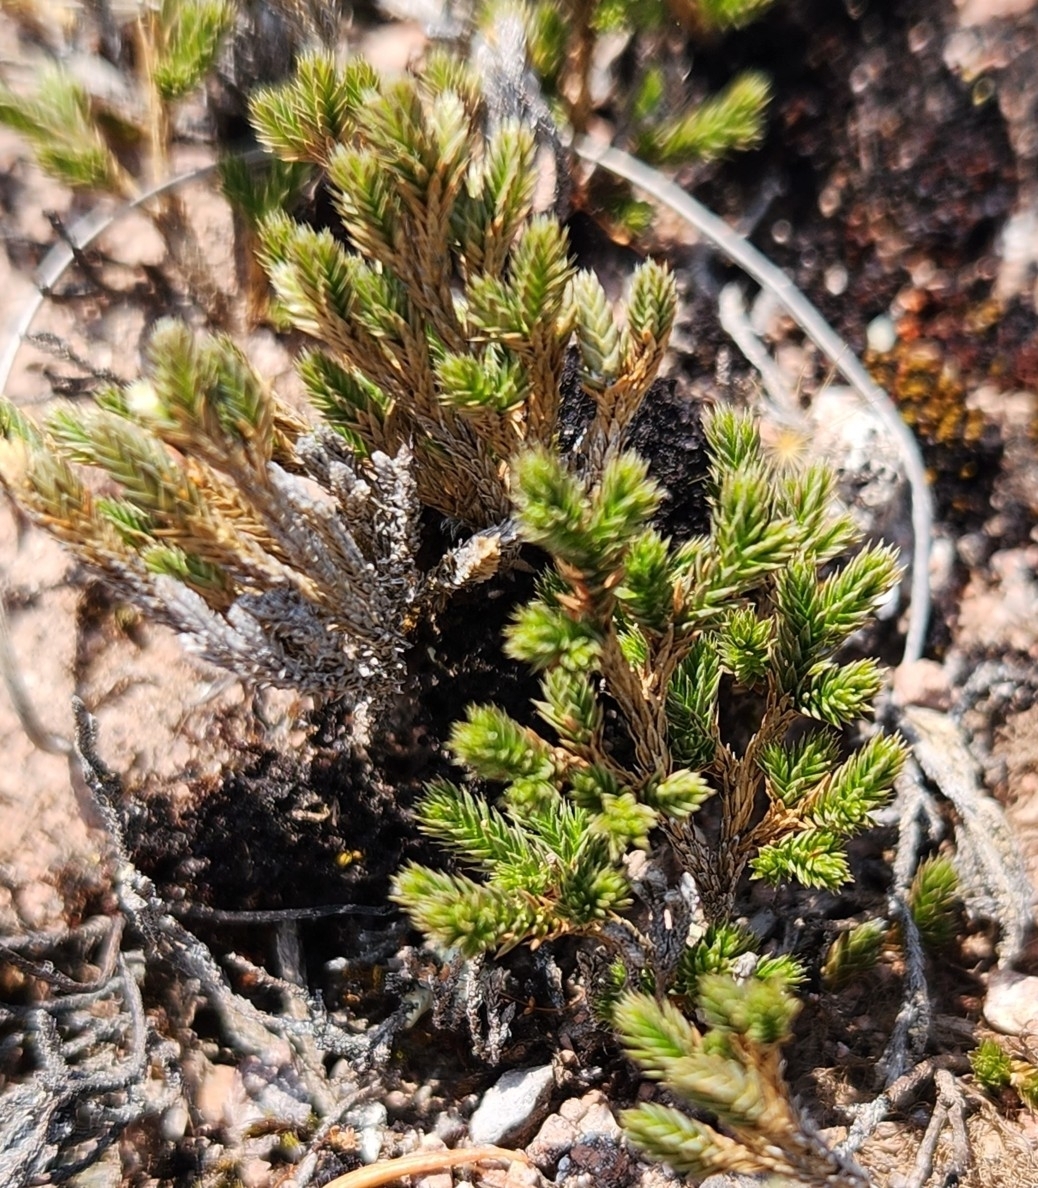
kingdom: Plantae
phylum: Tracheophyta
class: Lycopodiopsida
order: Selaginellales
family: Selaginellaceae
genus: Selaginella
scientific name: Selaginella bigelovii
